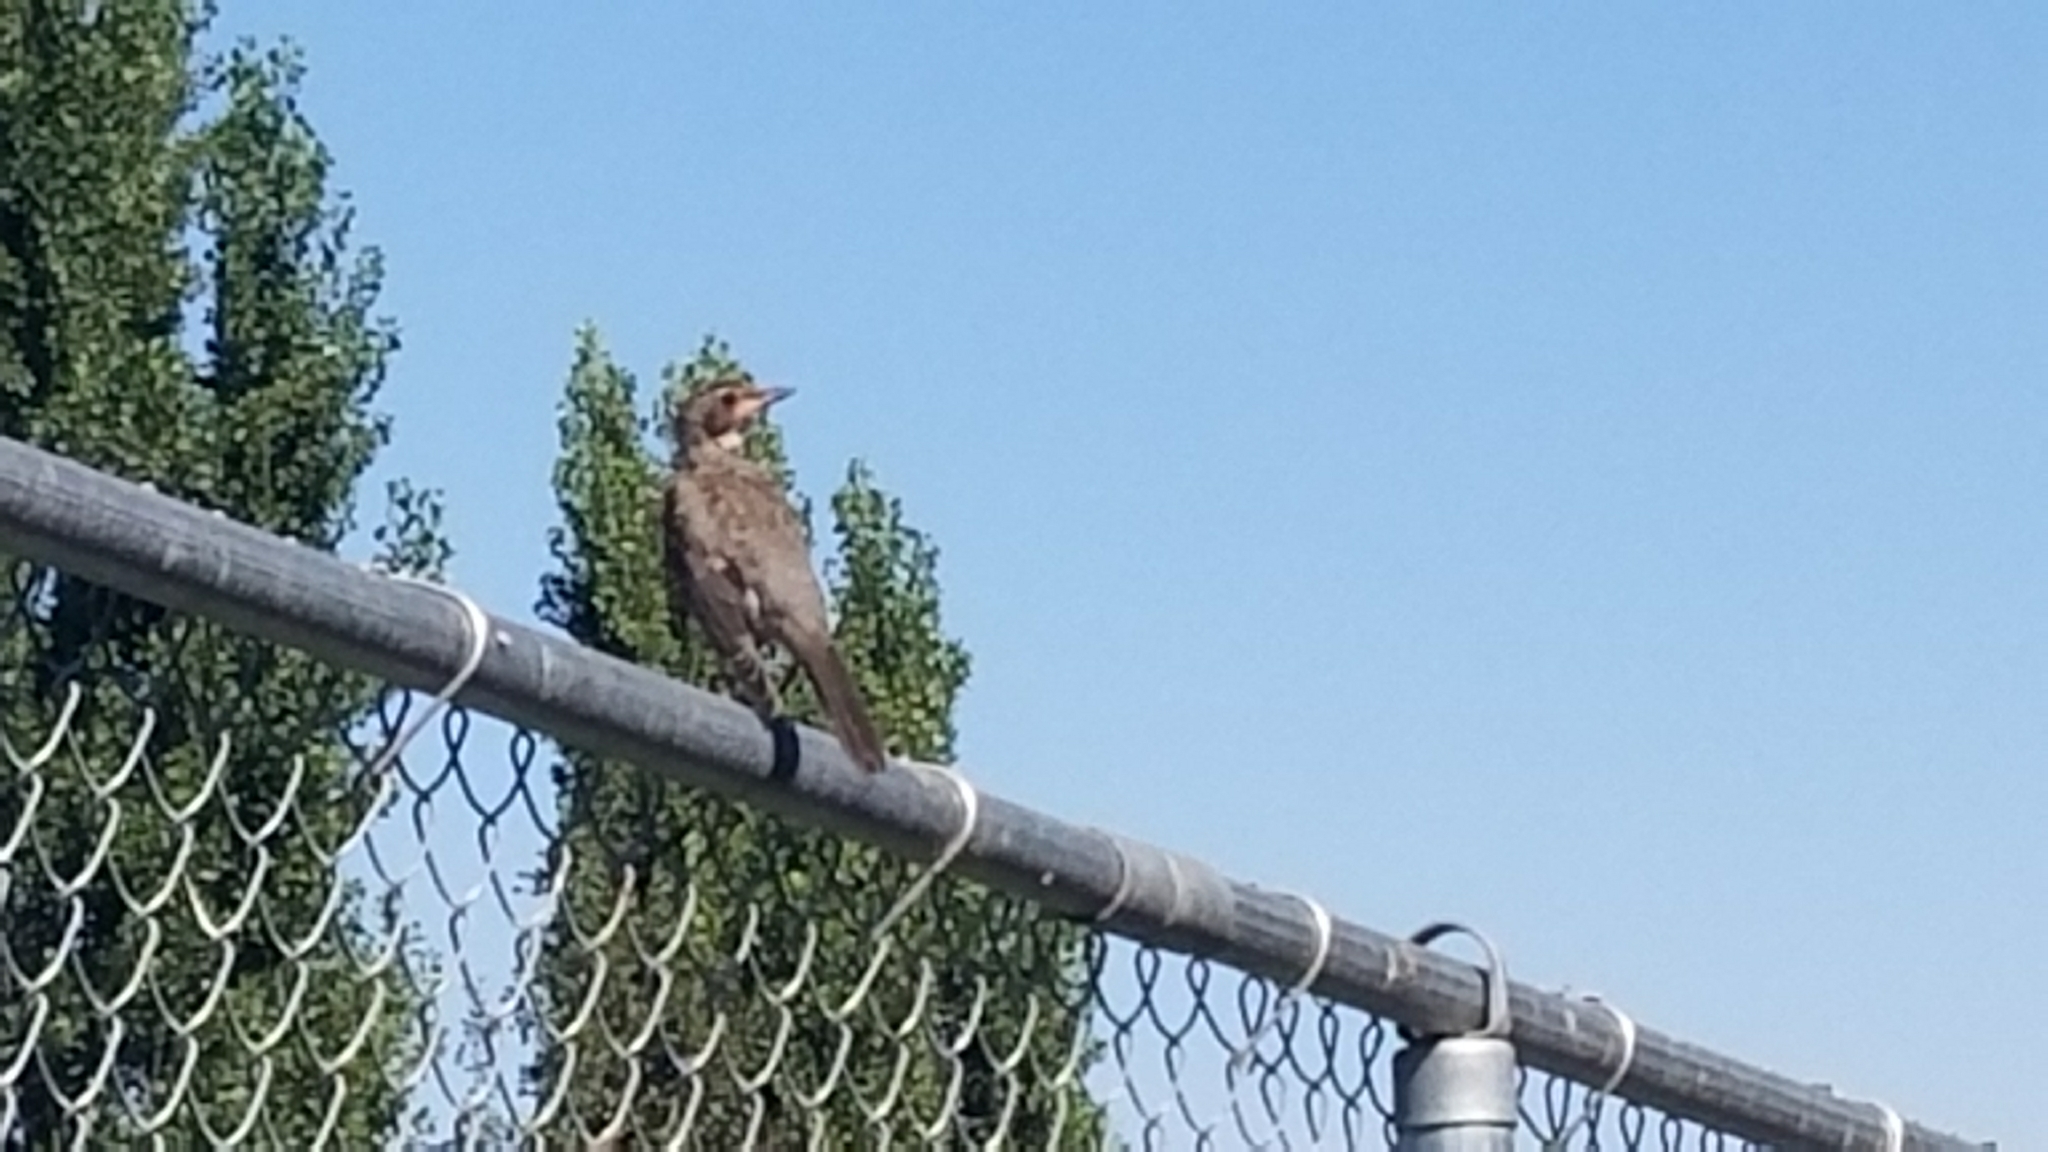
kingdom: Animalia
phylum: Chordata
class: Aves
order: Passeriformes
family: Turdidae
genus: Turdus
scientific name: Turdus migratorius
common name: American robin
